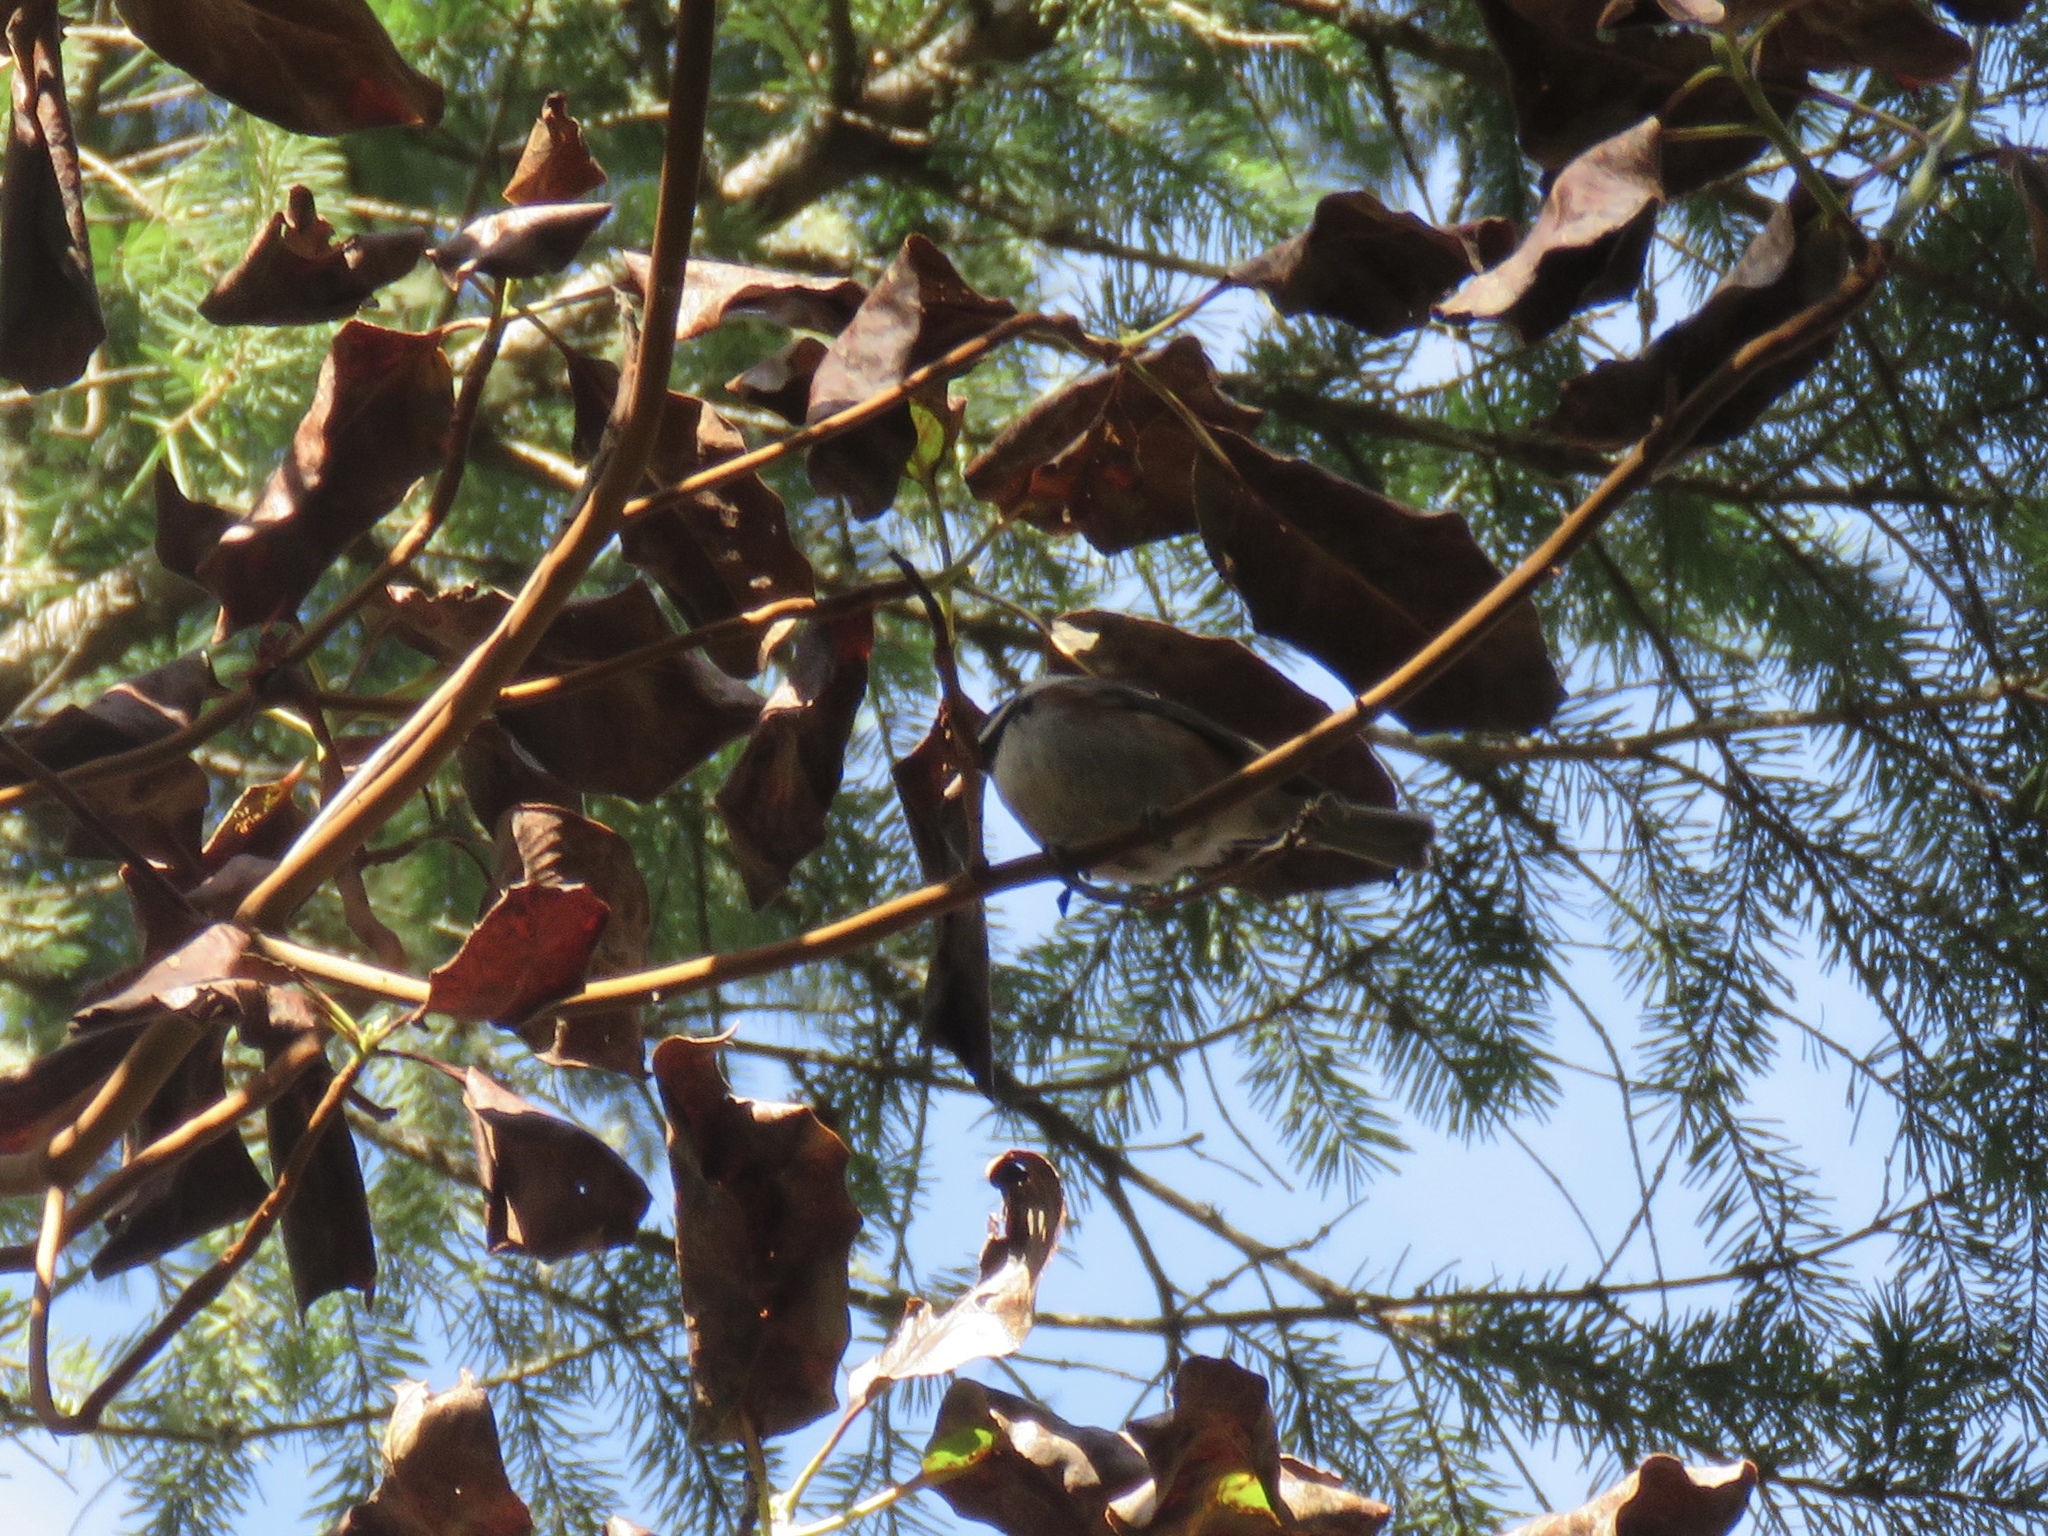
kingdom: Animalia
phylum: Chordata
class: Aves
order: Passeriformes
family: Paridae
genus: Poecile
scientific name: Poecile rufescens
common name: Chestnut-backed chickadee
